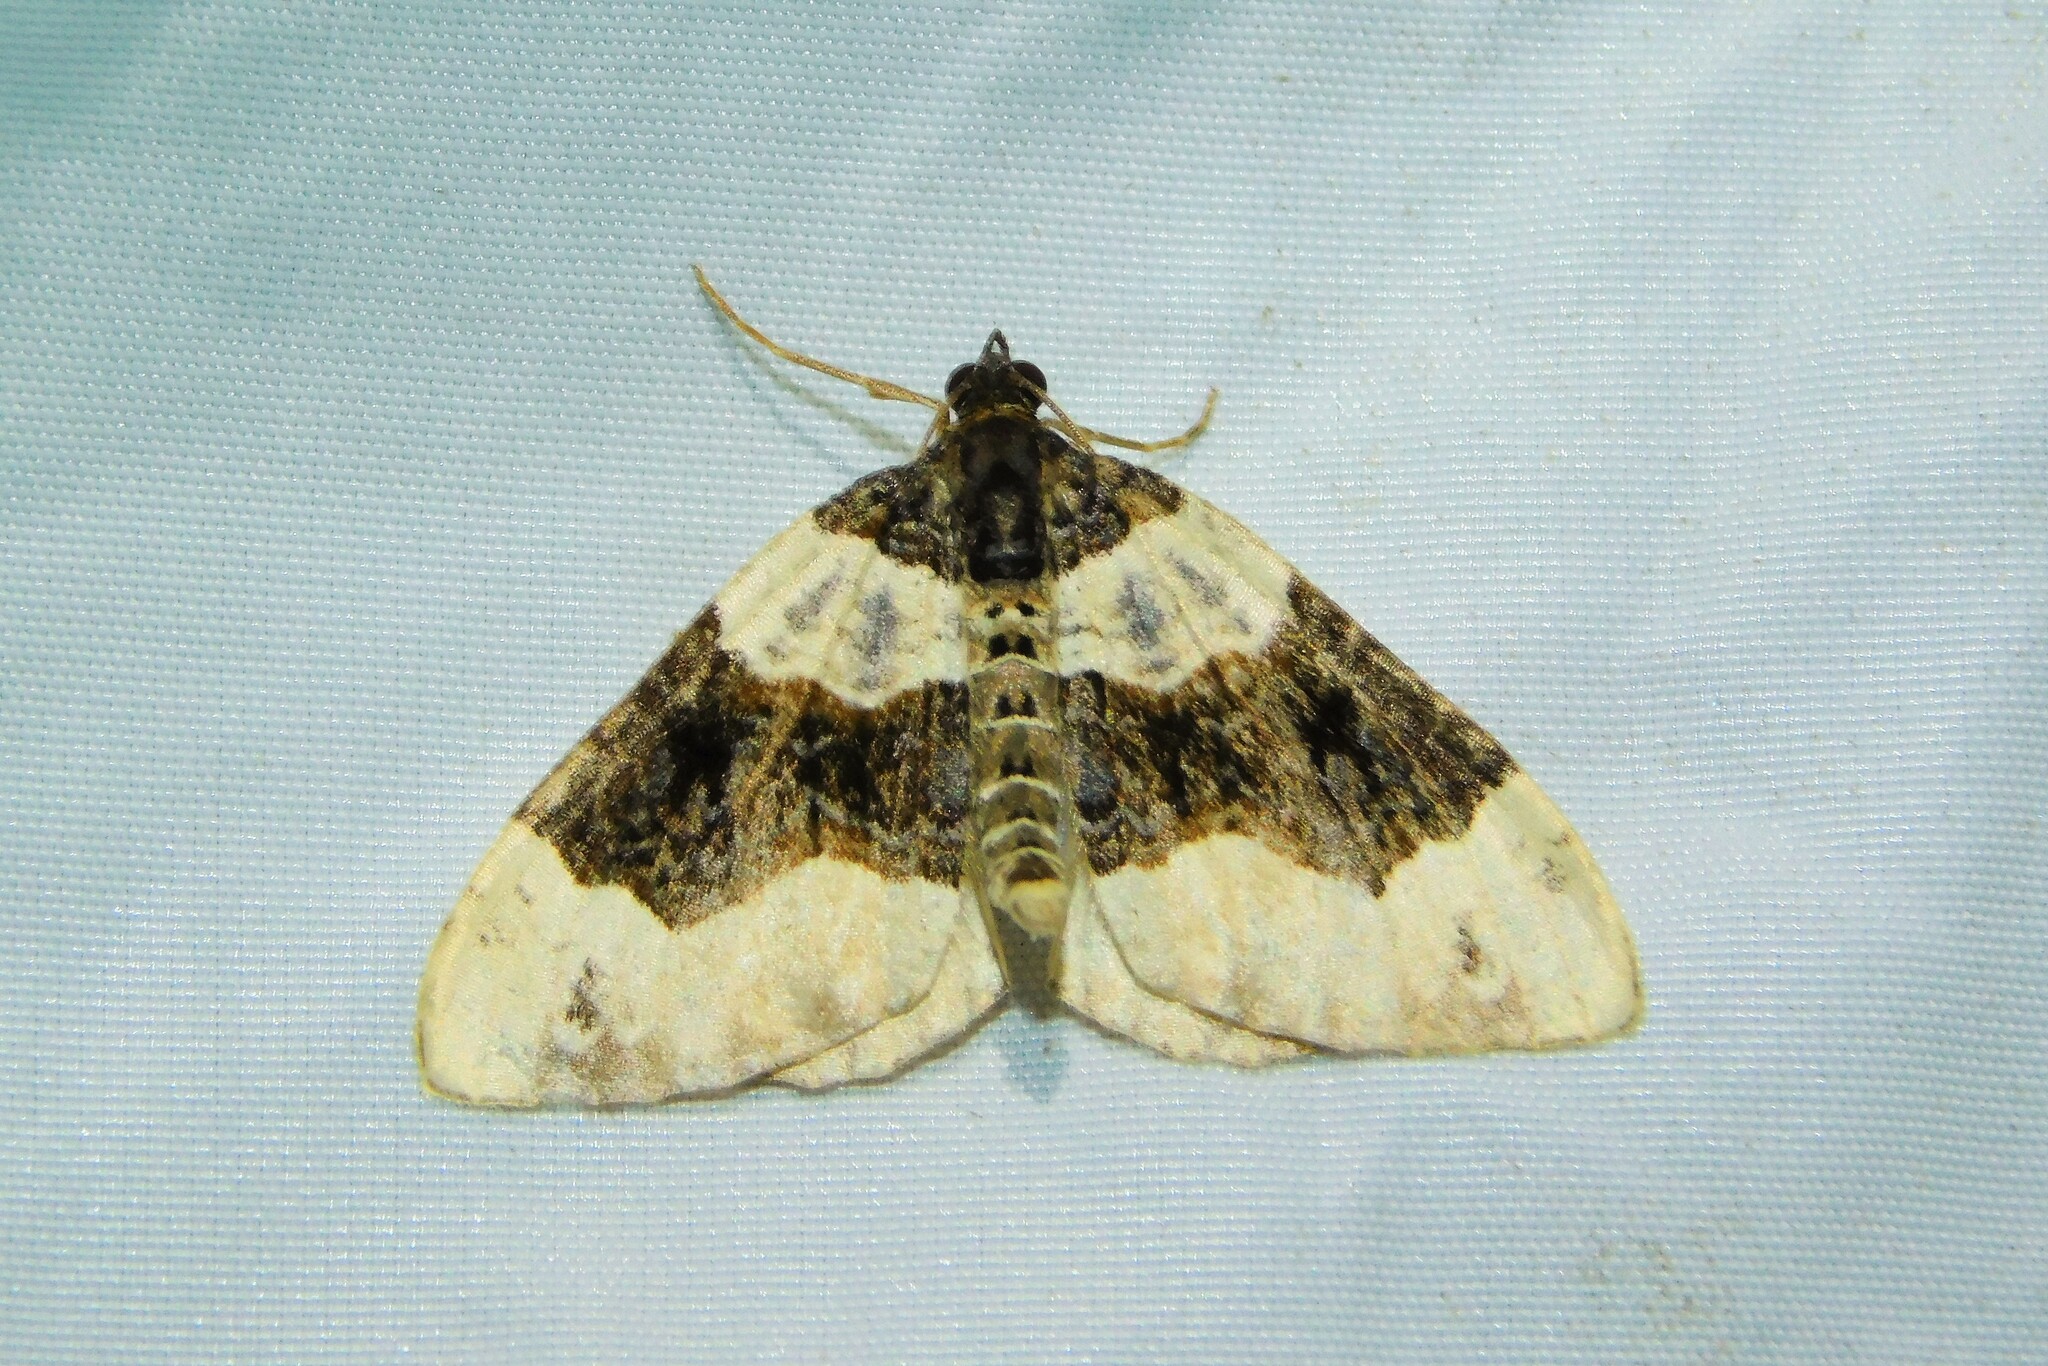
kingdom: Animalia
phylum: Arthropoda
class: Insecta
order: Lepidoptera
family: Geometridae
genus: Cosmorhoe
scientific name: Cosmorhoe ocellata
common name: Purple bar
